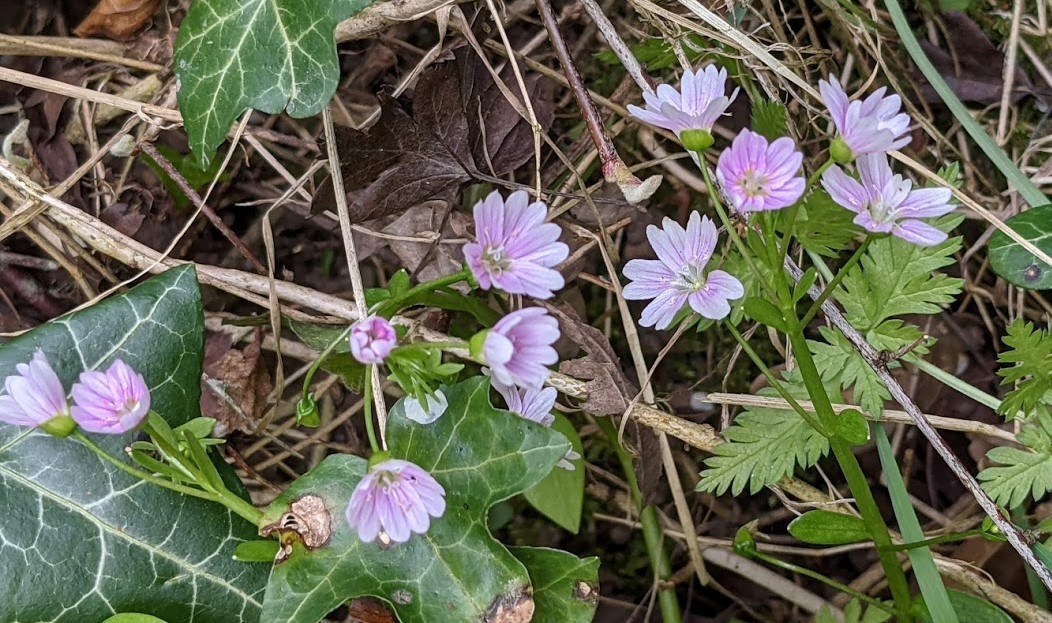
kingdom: Plantae
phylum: Tracheophyta
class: Magnoliopsida
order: Caryophyllales
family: Montiaceae
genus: Claytonia
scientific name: Claytonia sibirica
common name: Pink purslane
